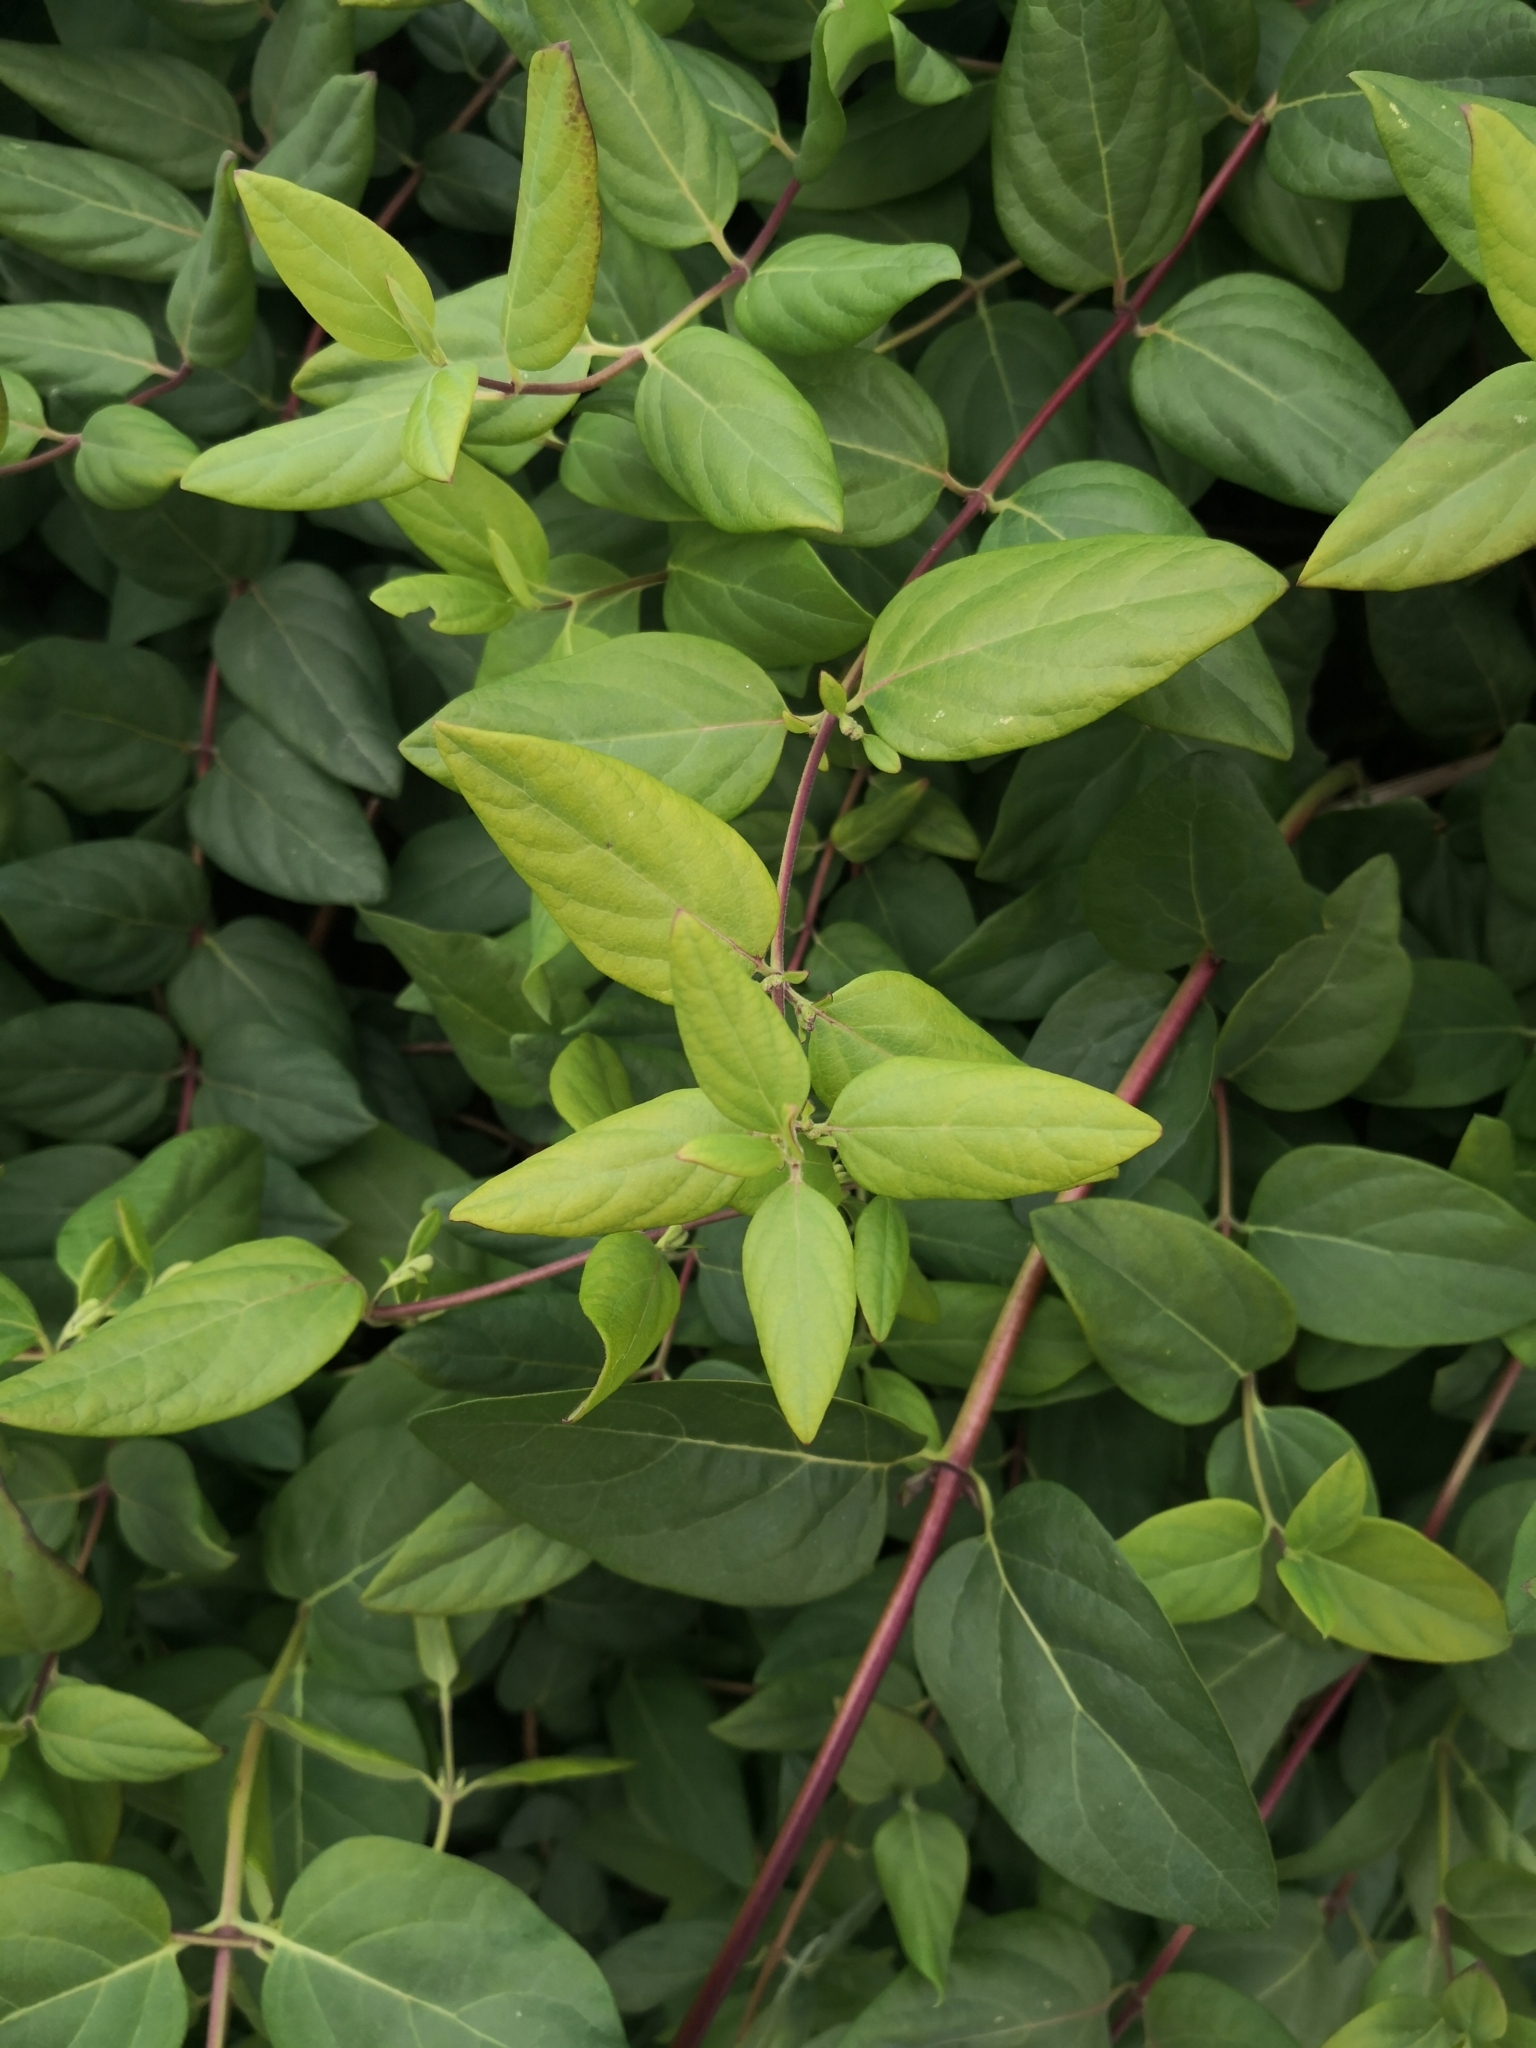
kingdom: Plantae
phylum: Tracheophyta
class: Magnoliopsida
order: Dipsacales
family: Caprifoliaceae
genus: Lonicera
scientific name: Lonicera japonica
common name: Japanese honeysuckle
